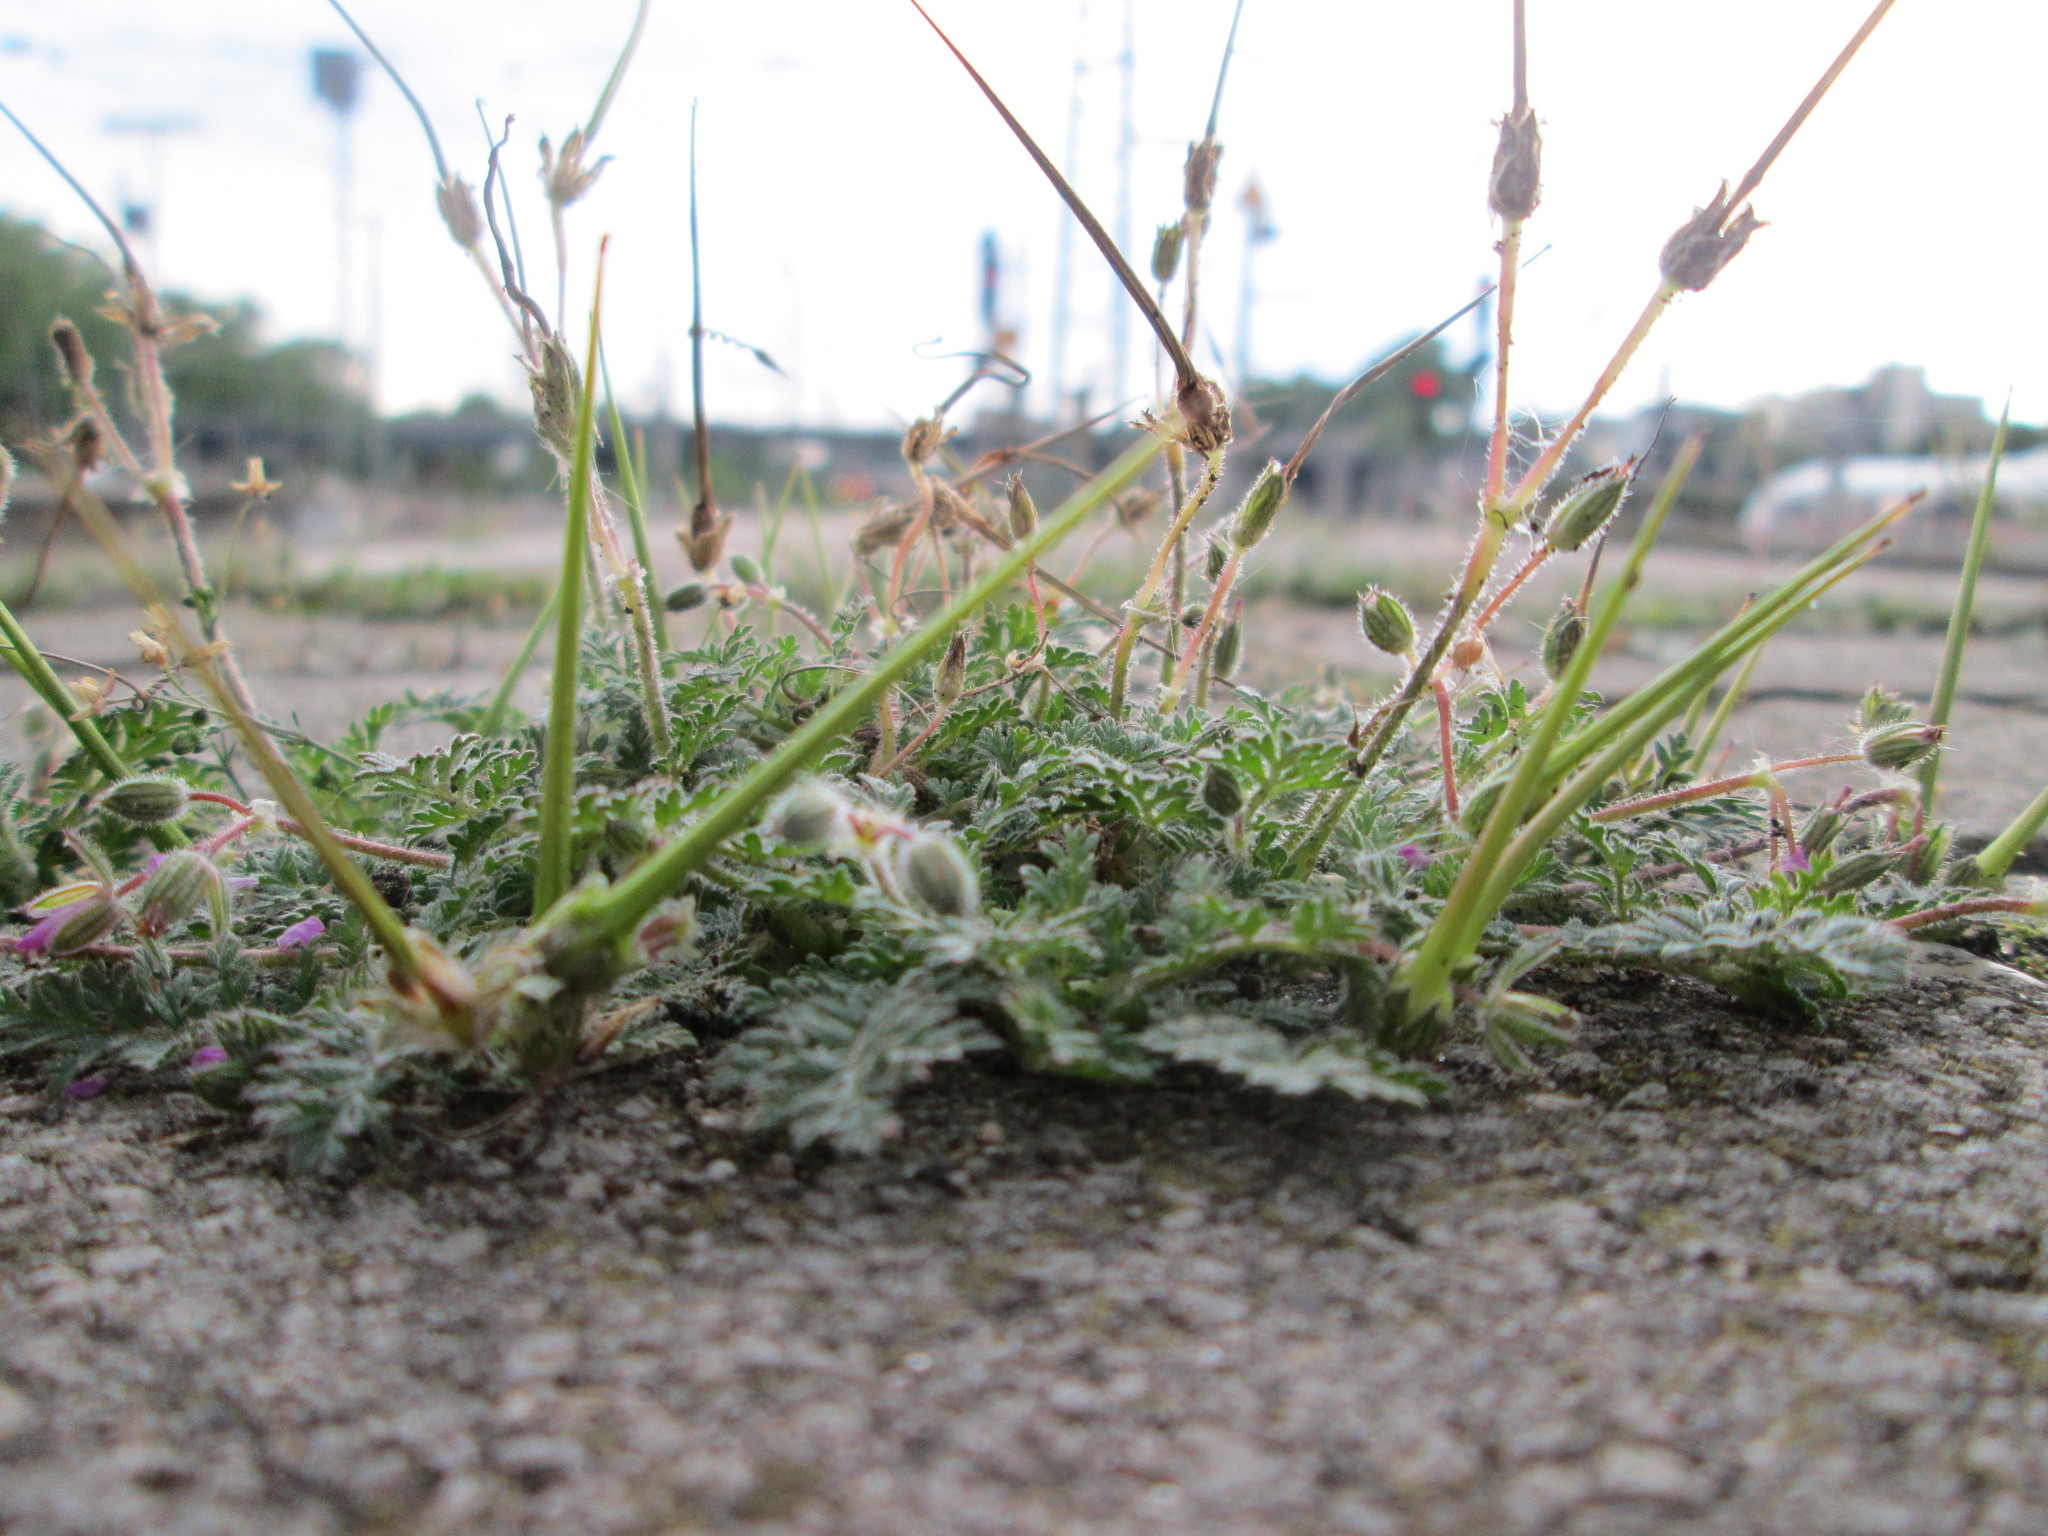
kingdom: Plantae
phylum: Tracheophyta
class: Magnoliopsida
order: Geraniales
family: Geraniaceae
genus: Erodium
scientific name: Erodium cicutarium
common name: Common stork's-bill
